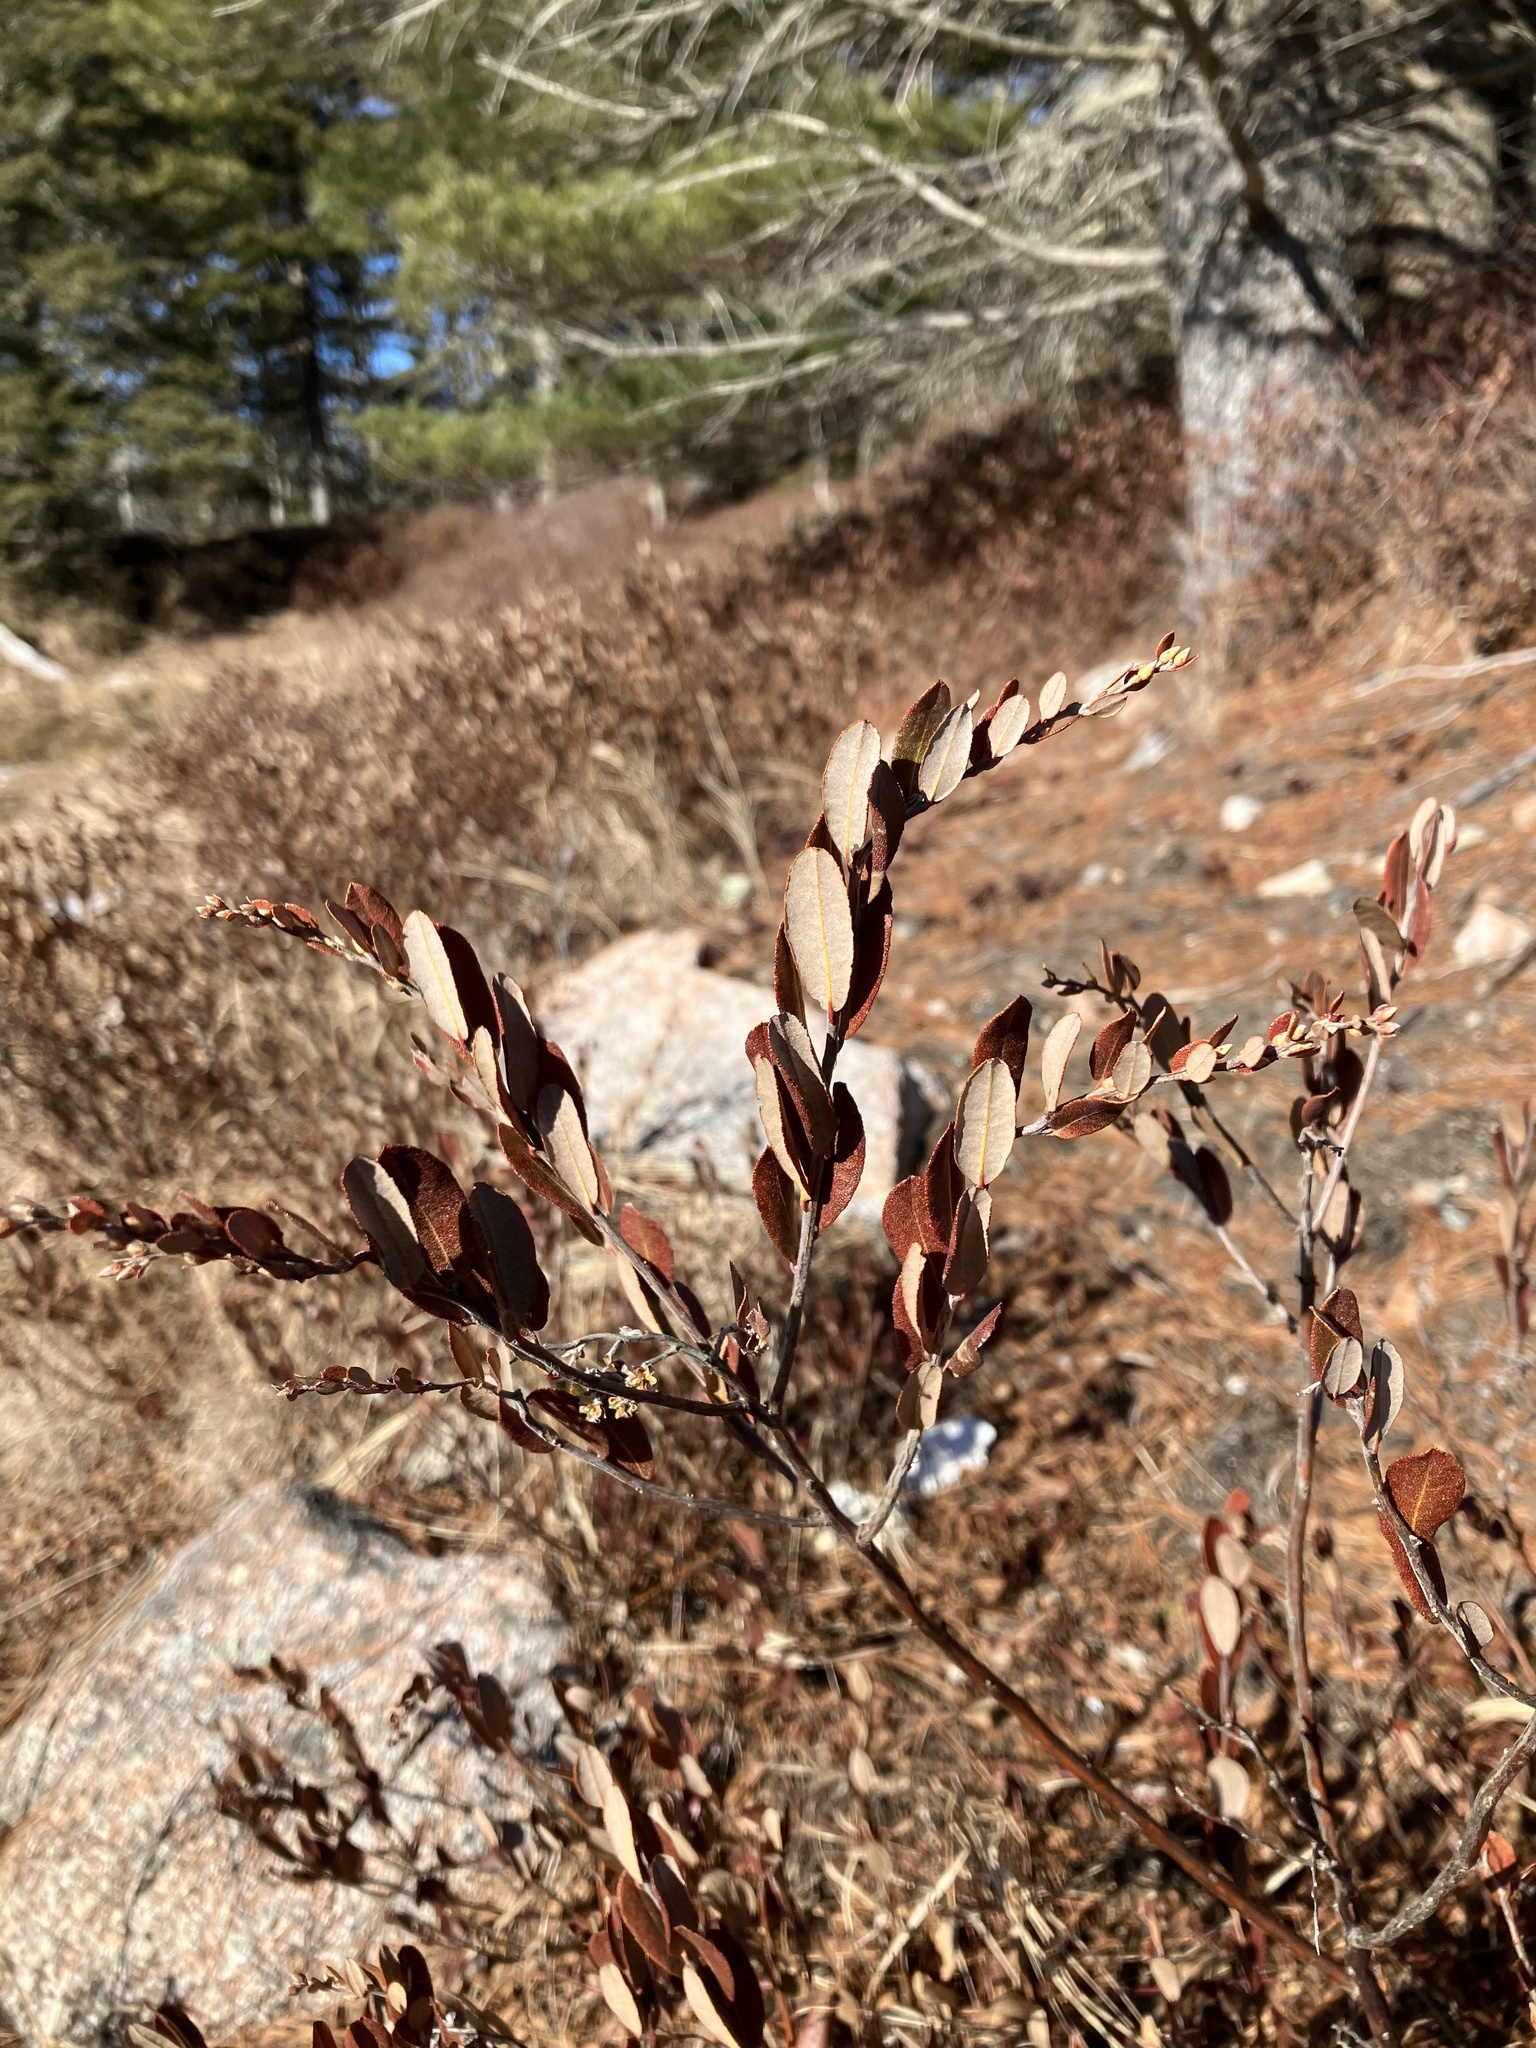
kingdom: Plantae
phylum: Tracheophyta
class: Magnoliopsida
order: Ericales
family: Ericaceae
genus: Chamaedaphne
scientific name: Chamaedaphne calyculata
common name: Leatherleaf
